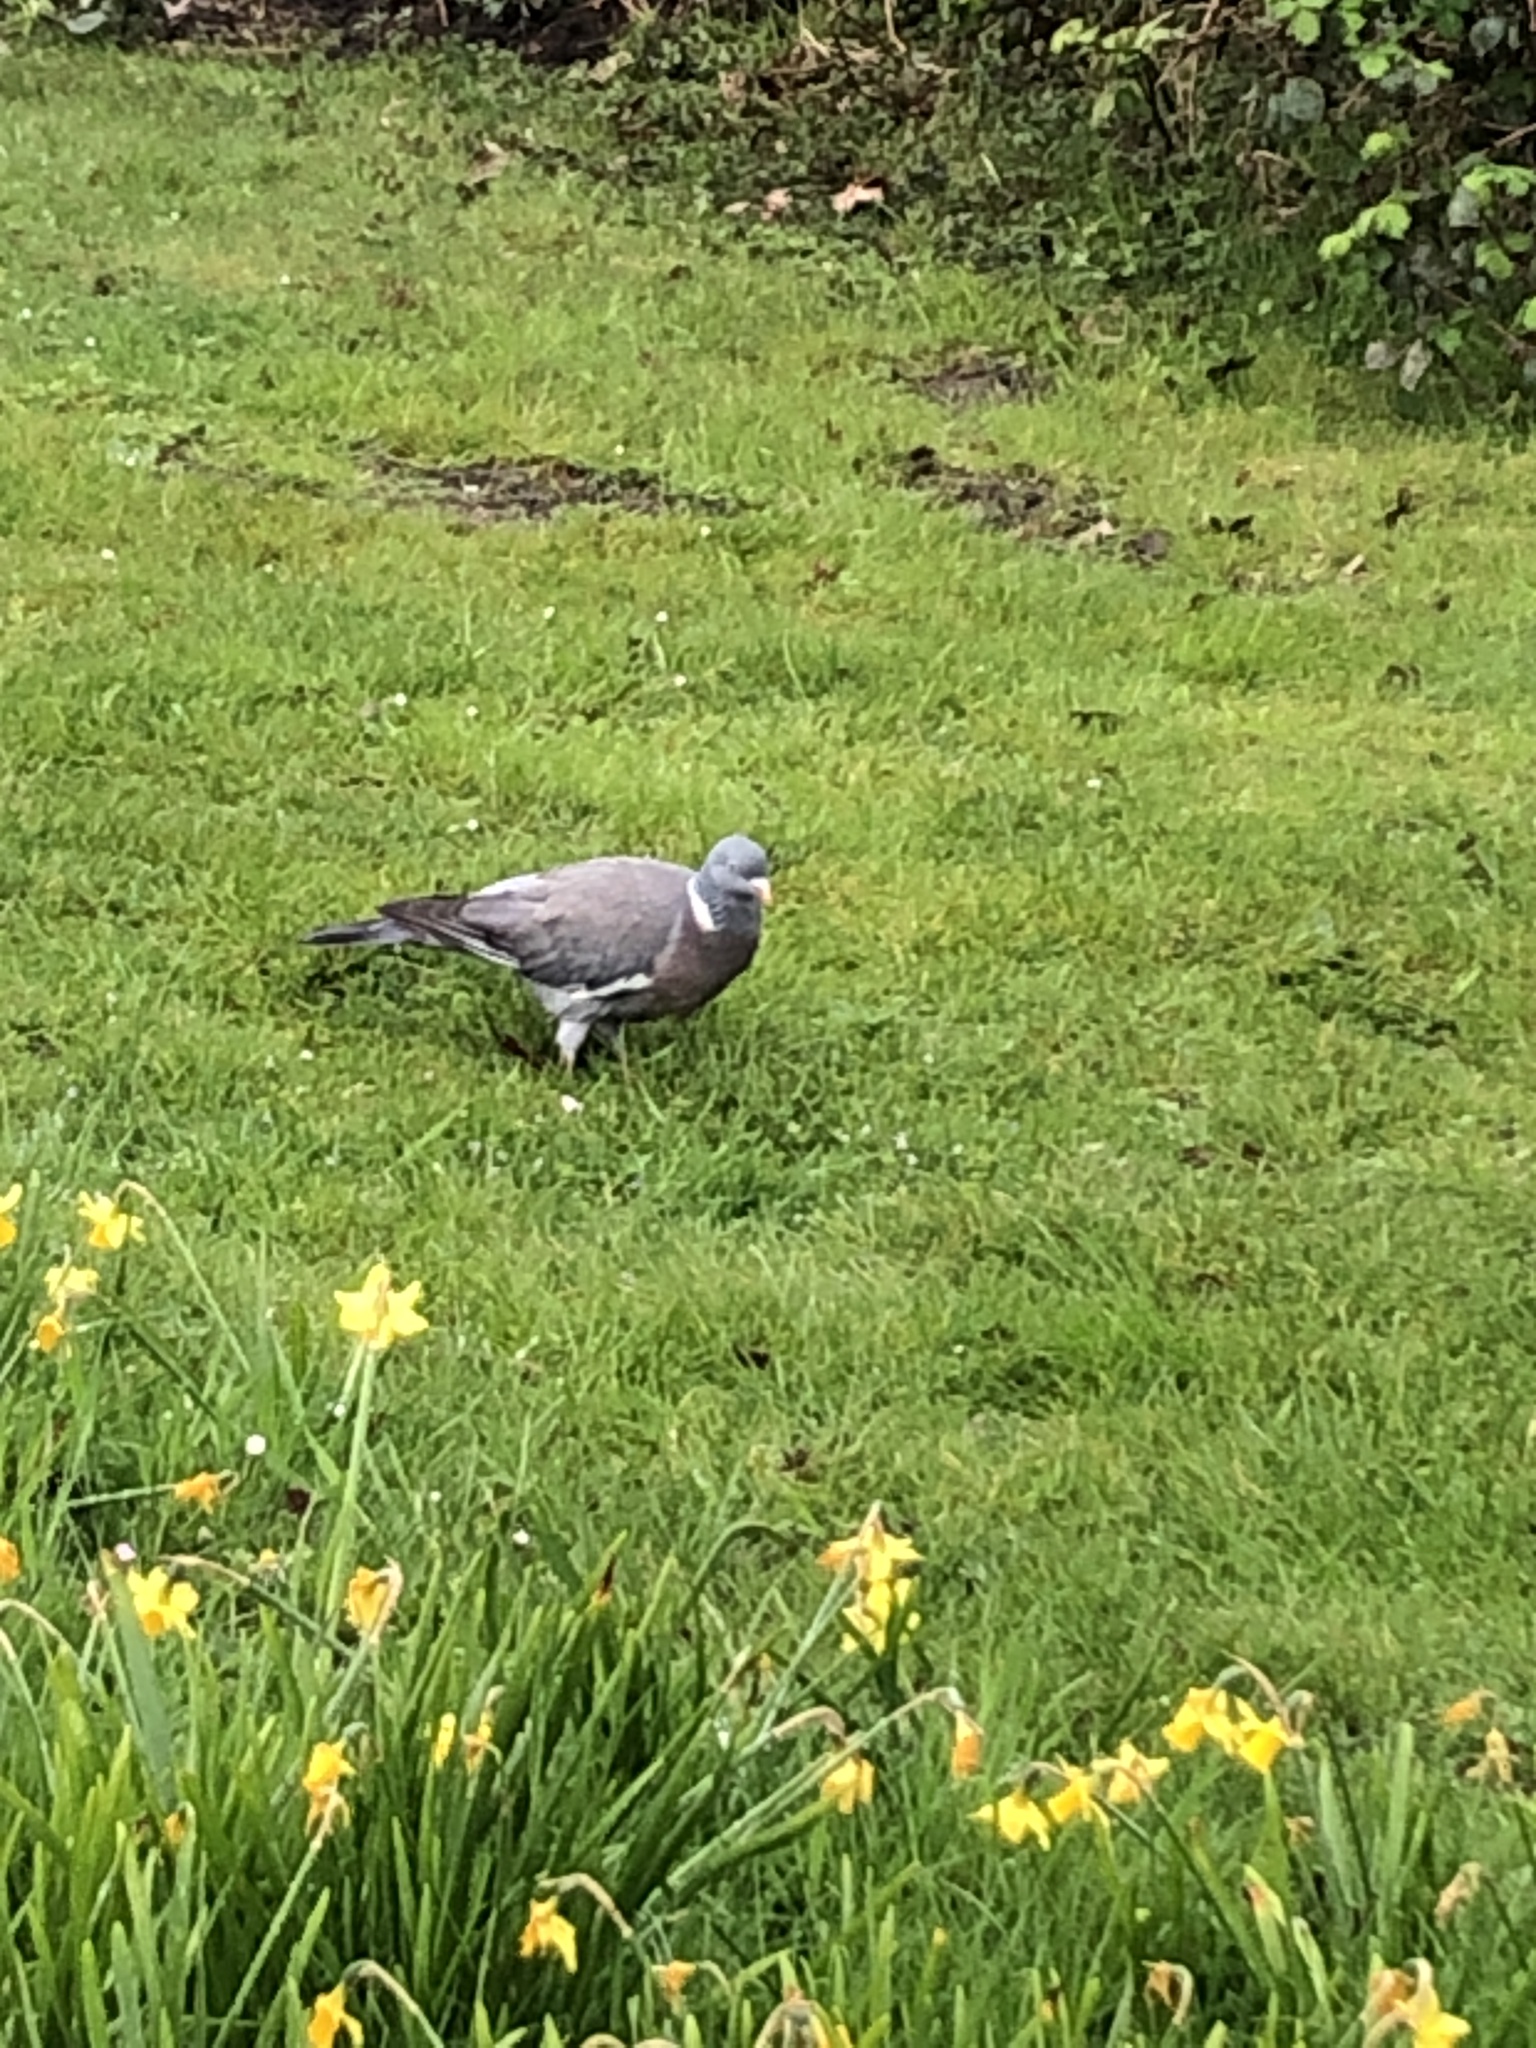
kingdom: Animalia
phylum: Chordata
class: Aves
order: Columbiformes
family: Columbidae
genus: Columba
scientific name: Columba palumbus
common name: Common wood pigeon
